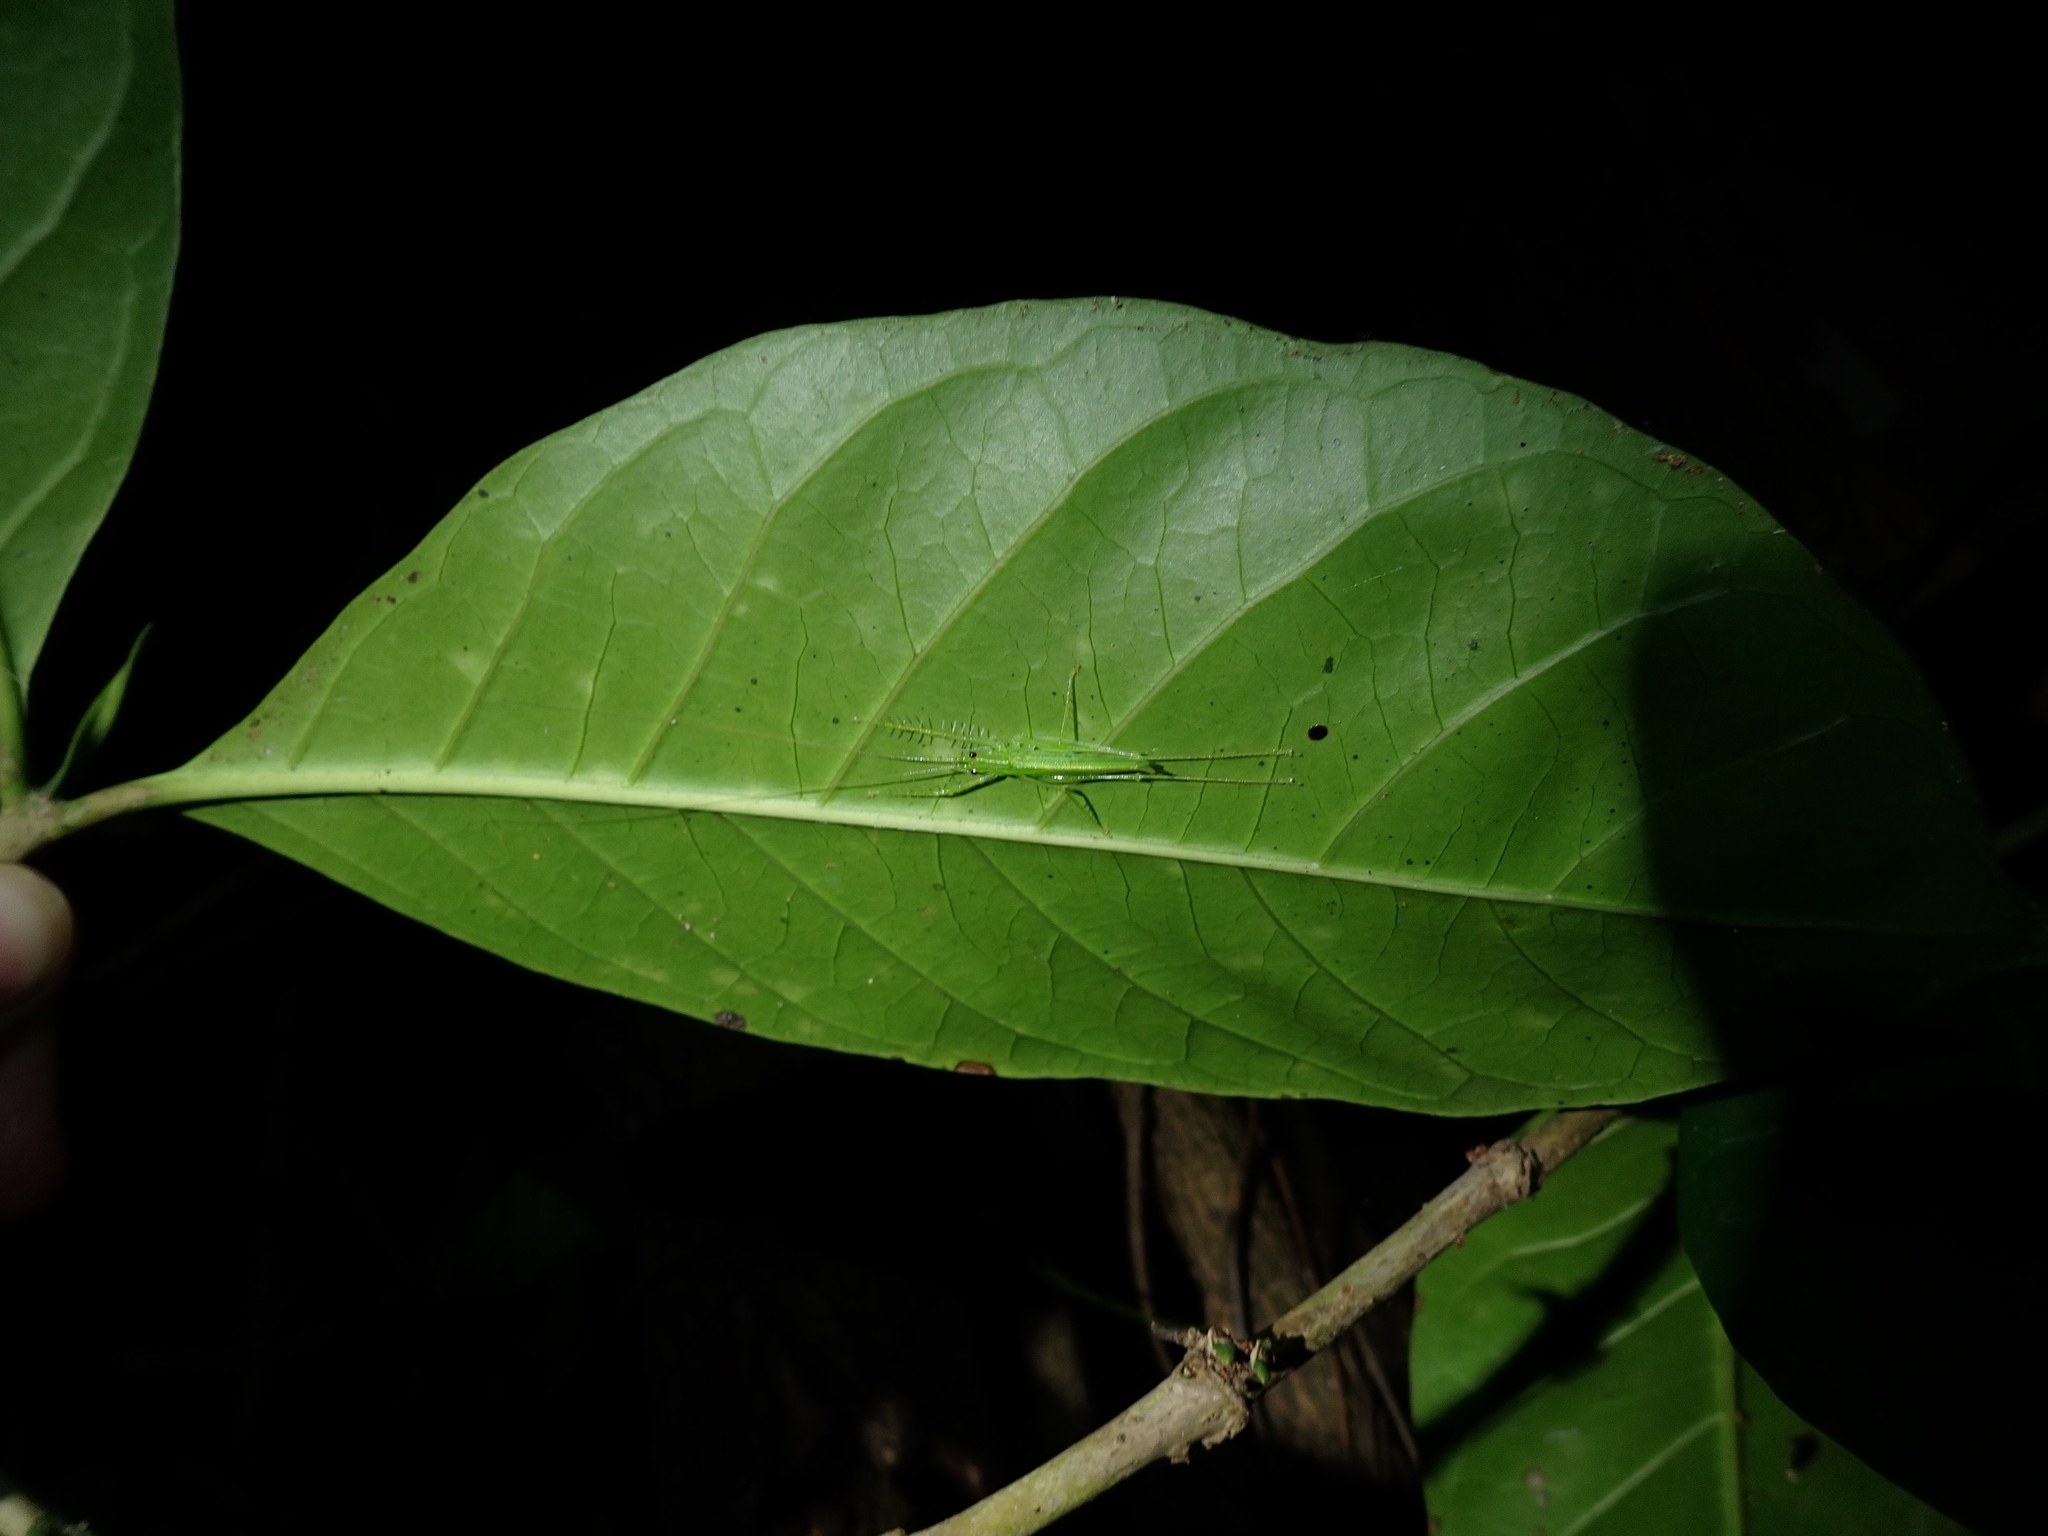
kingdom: Animalia
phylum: Arthropoda
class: Insecta
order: Orthoptera
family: Tettigoniidae
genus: Paraphisis
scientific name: Paraphisis wirreecoo
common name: Wirreecoo spider katydid
